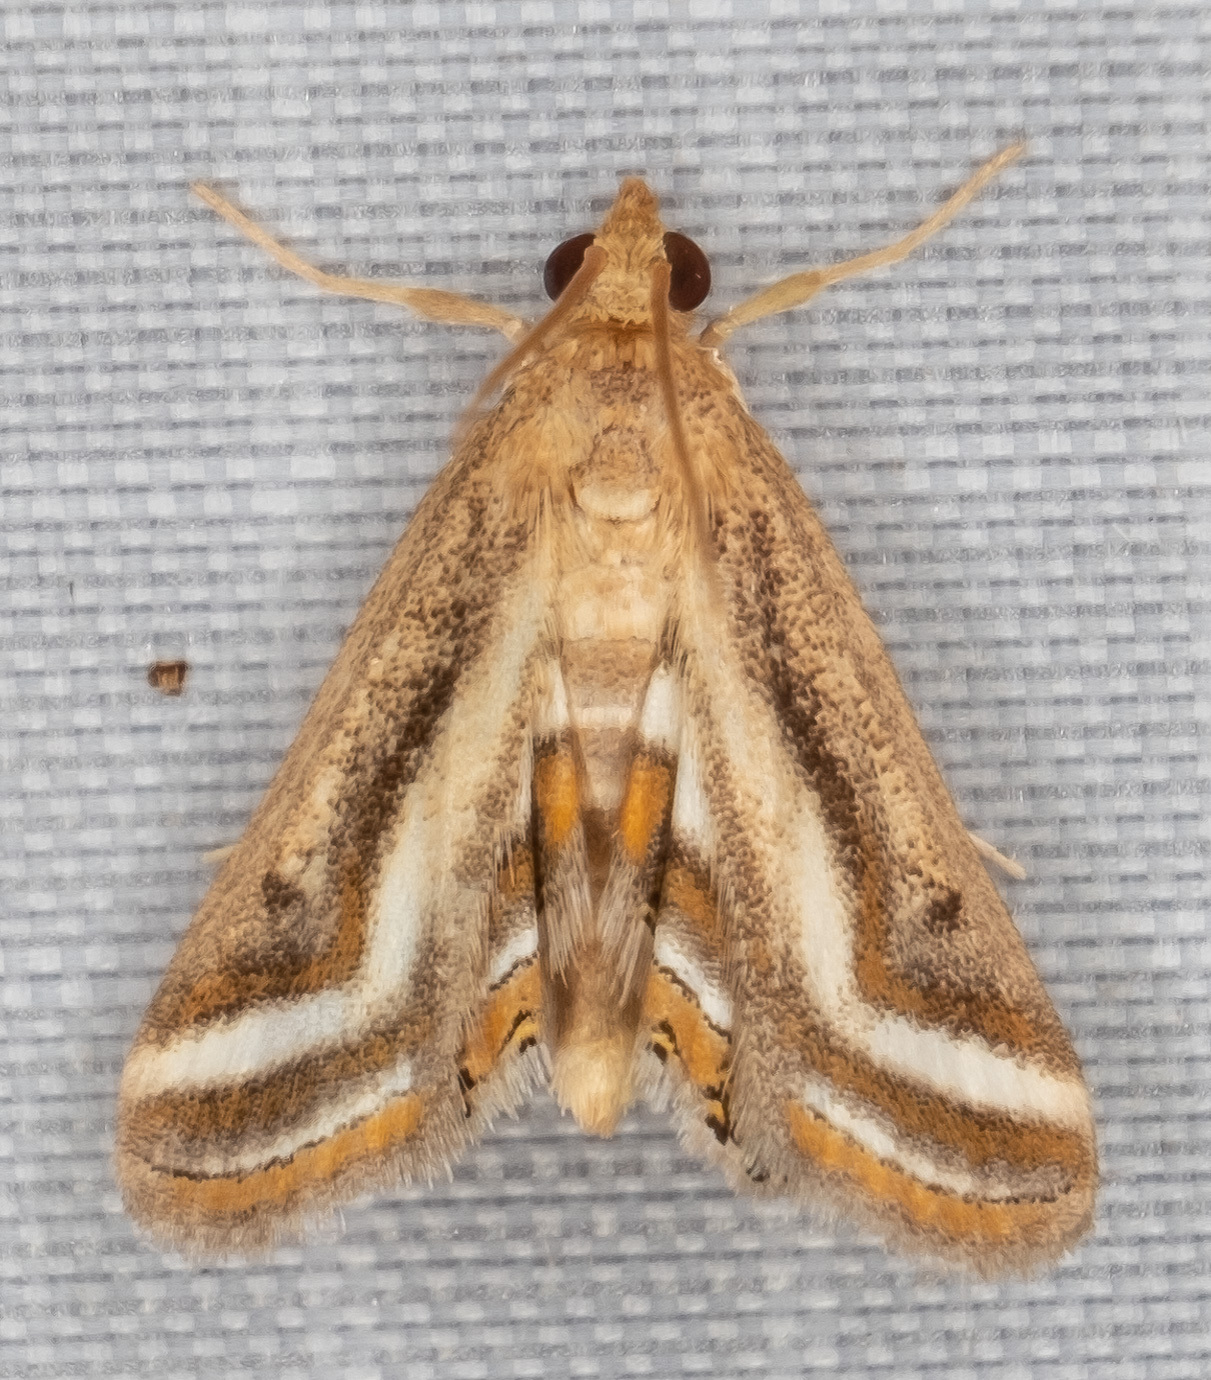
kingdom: Animalia
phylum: Arthropoda
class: Insecta
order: Lepidoptera
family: Crambidae
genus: Parapoynx
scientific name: Parapoynx seminealis
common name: Floating-heart waterlily leafcutter
